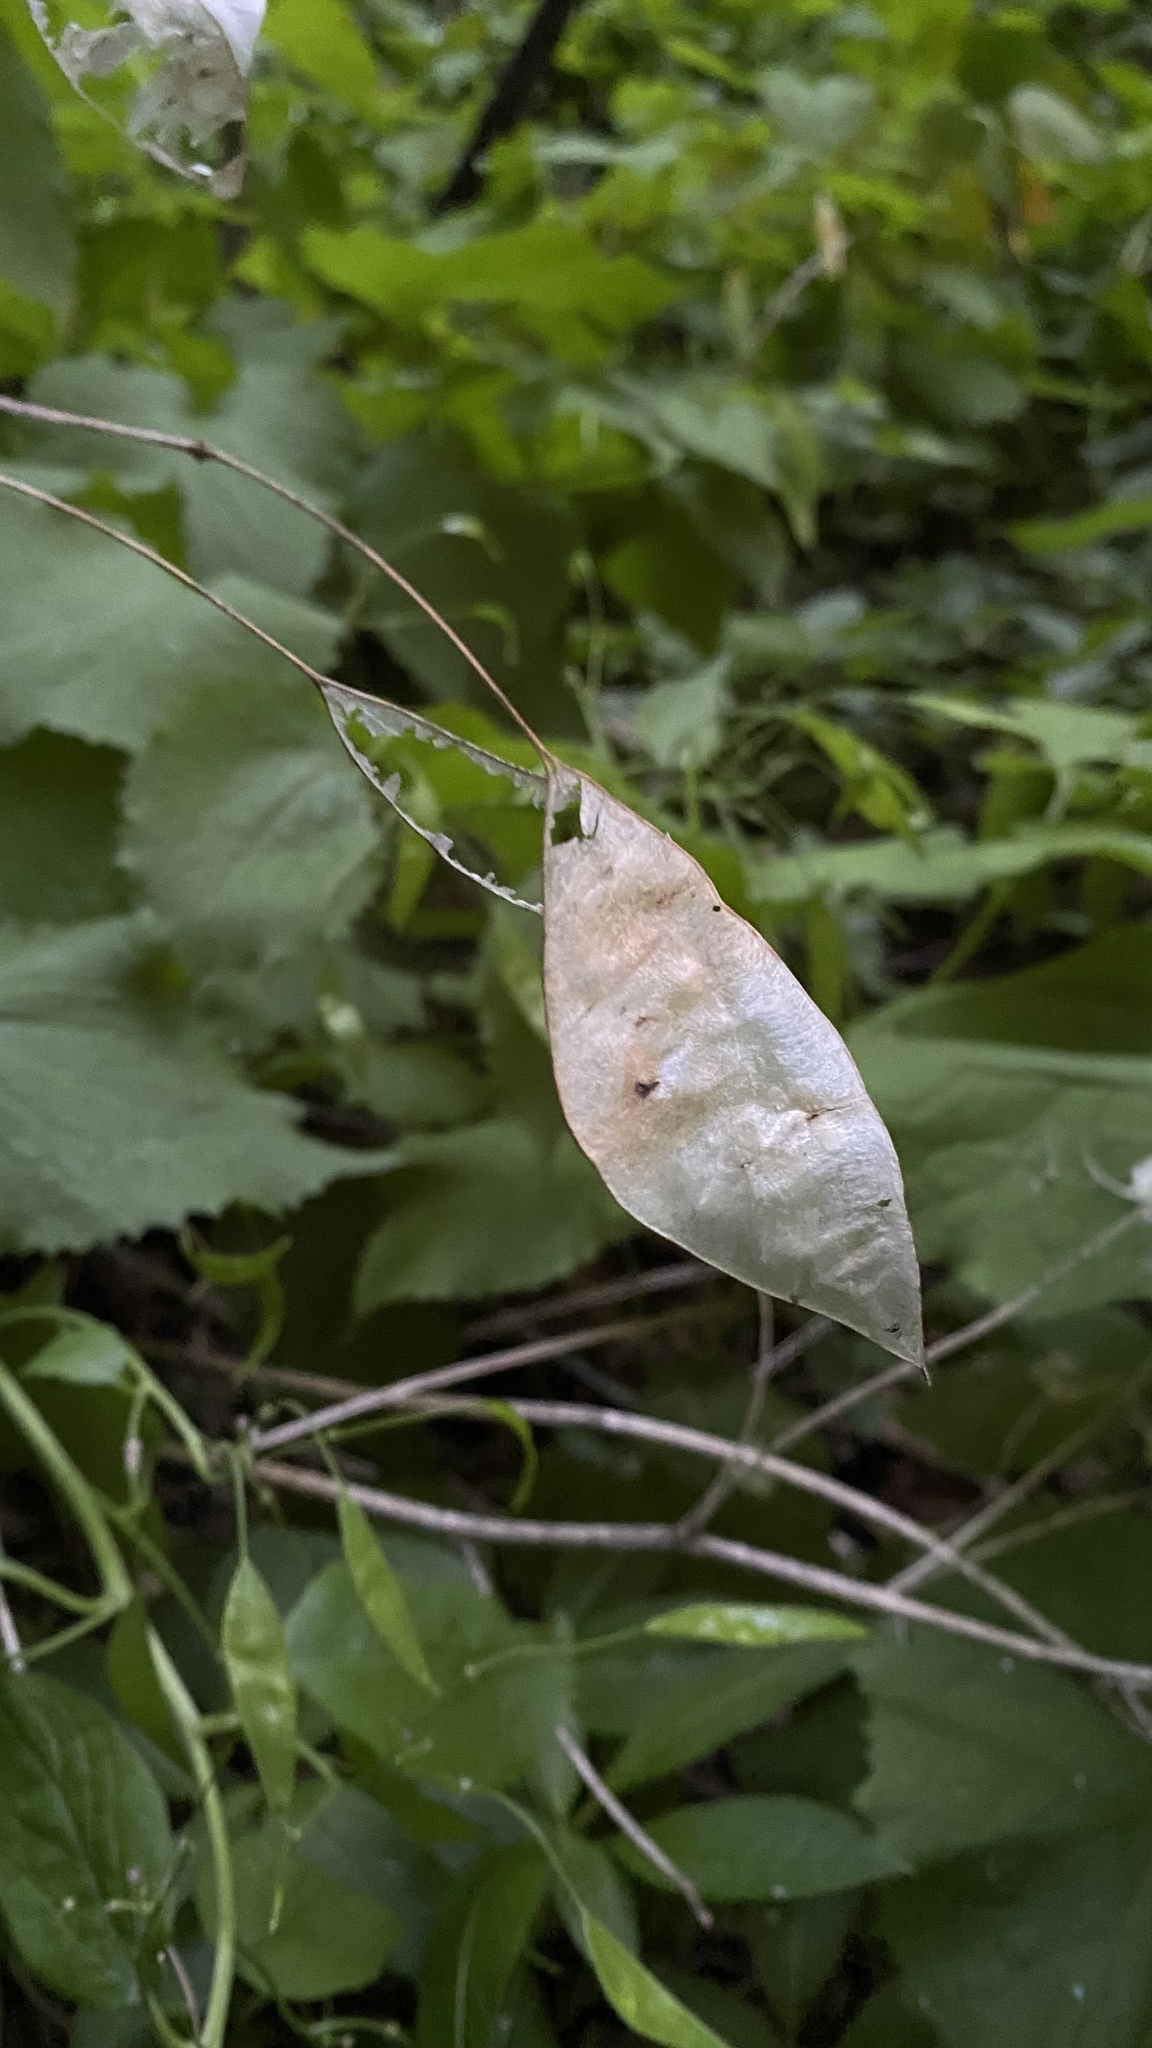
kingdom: Plantae
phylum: Tracheophyta
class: Magnoliopsida
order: Brassicales
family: Brassicaceae
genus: Lunaria
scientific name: Lunaria rediviva
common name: Perennial honesty
